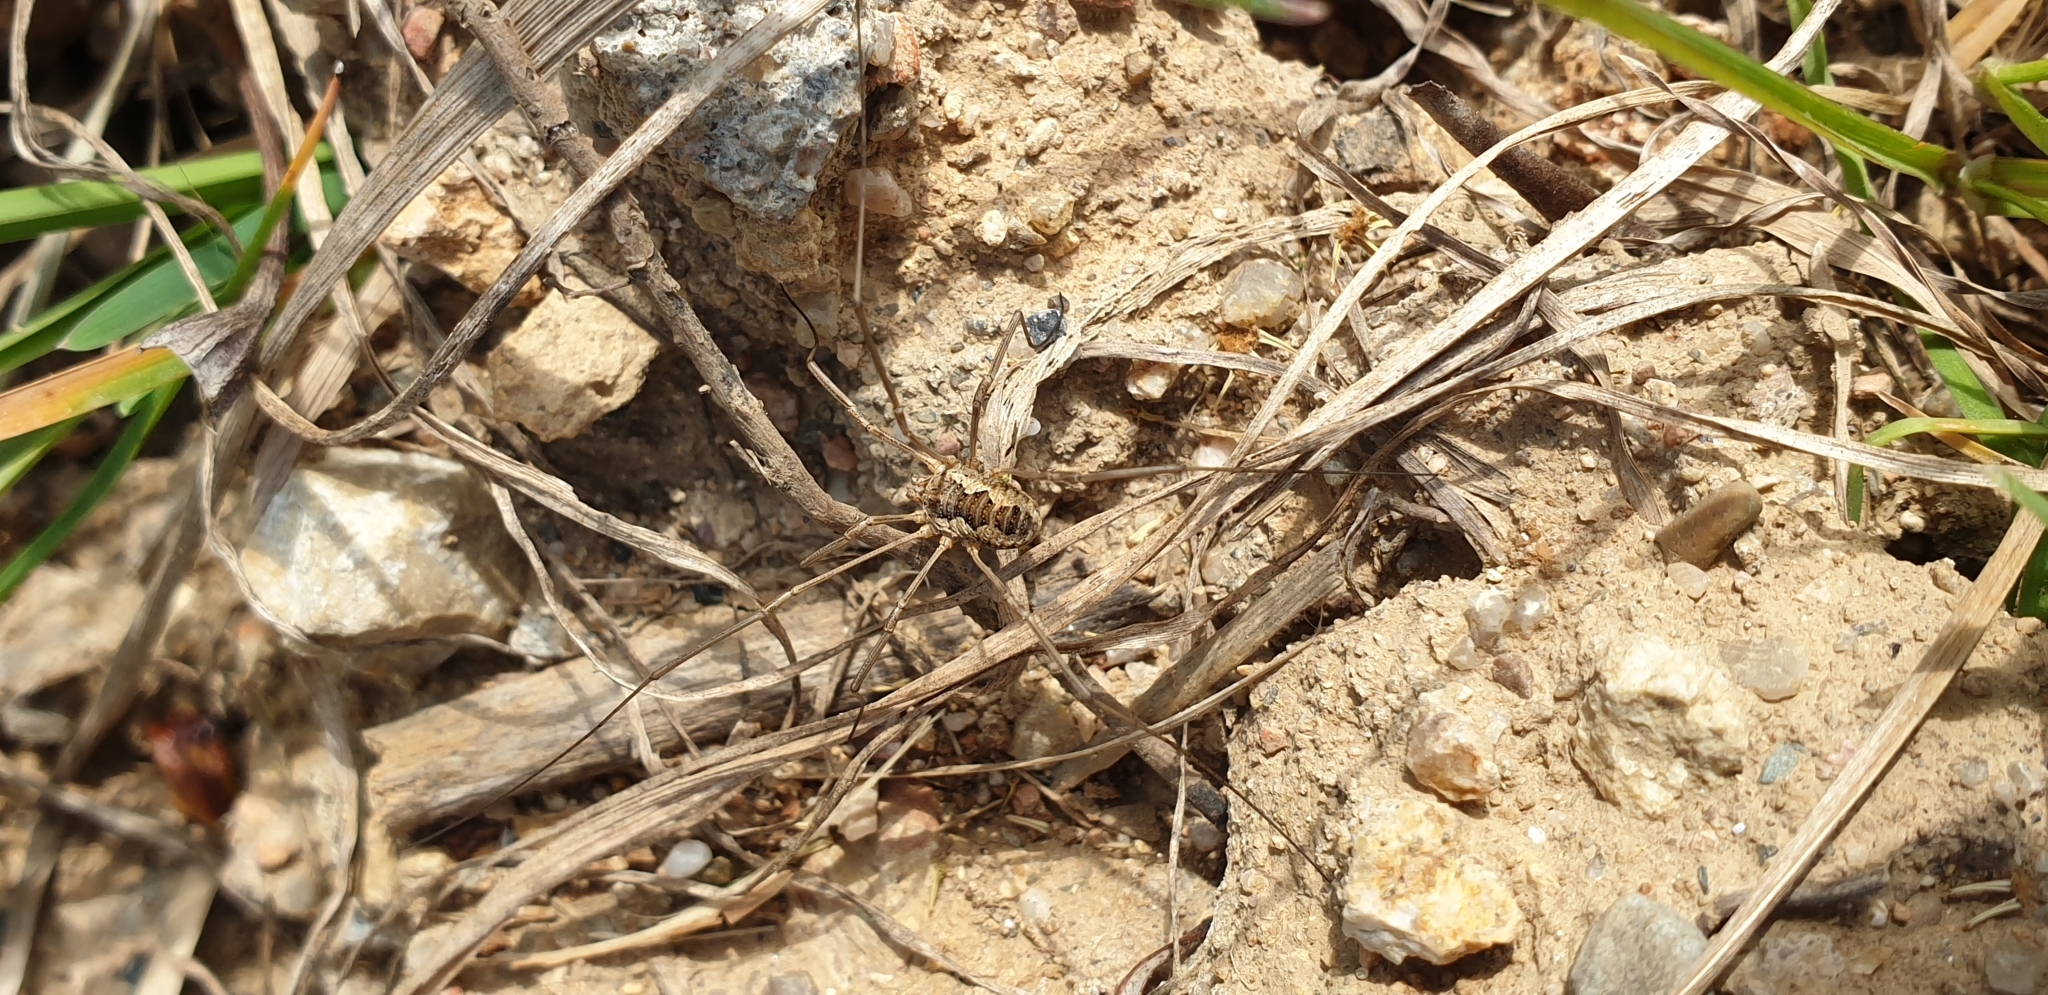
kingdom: Animalia
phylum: Arthropoda
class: Arachnida
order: Opiliones
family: Phalangiidae
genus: Phalangium
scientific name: Phalangium opilio
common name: Daddy longleg
